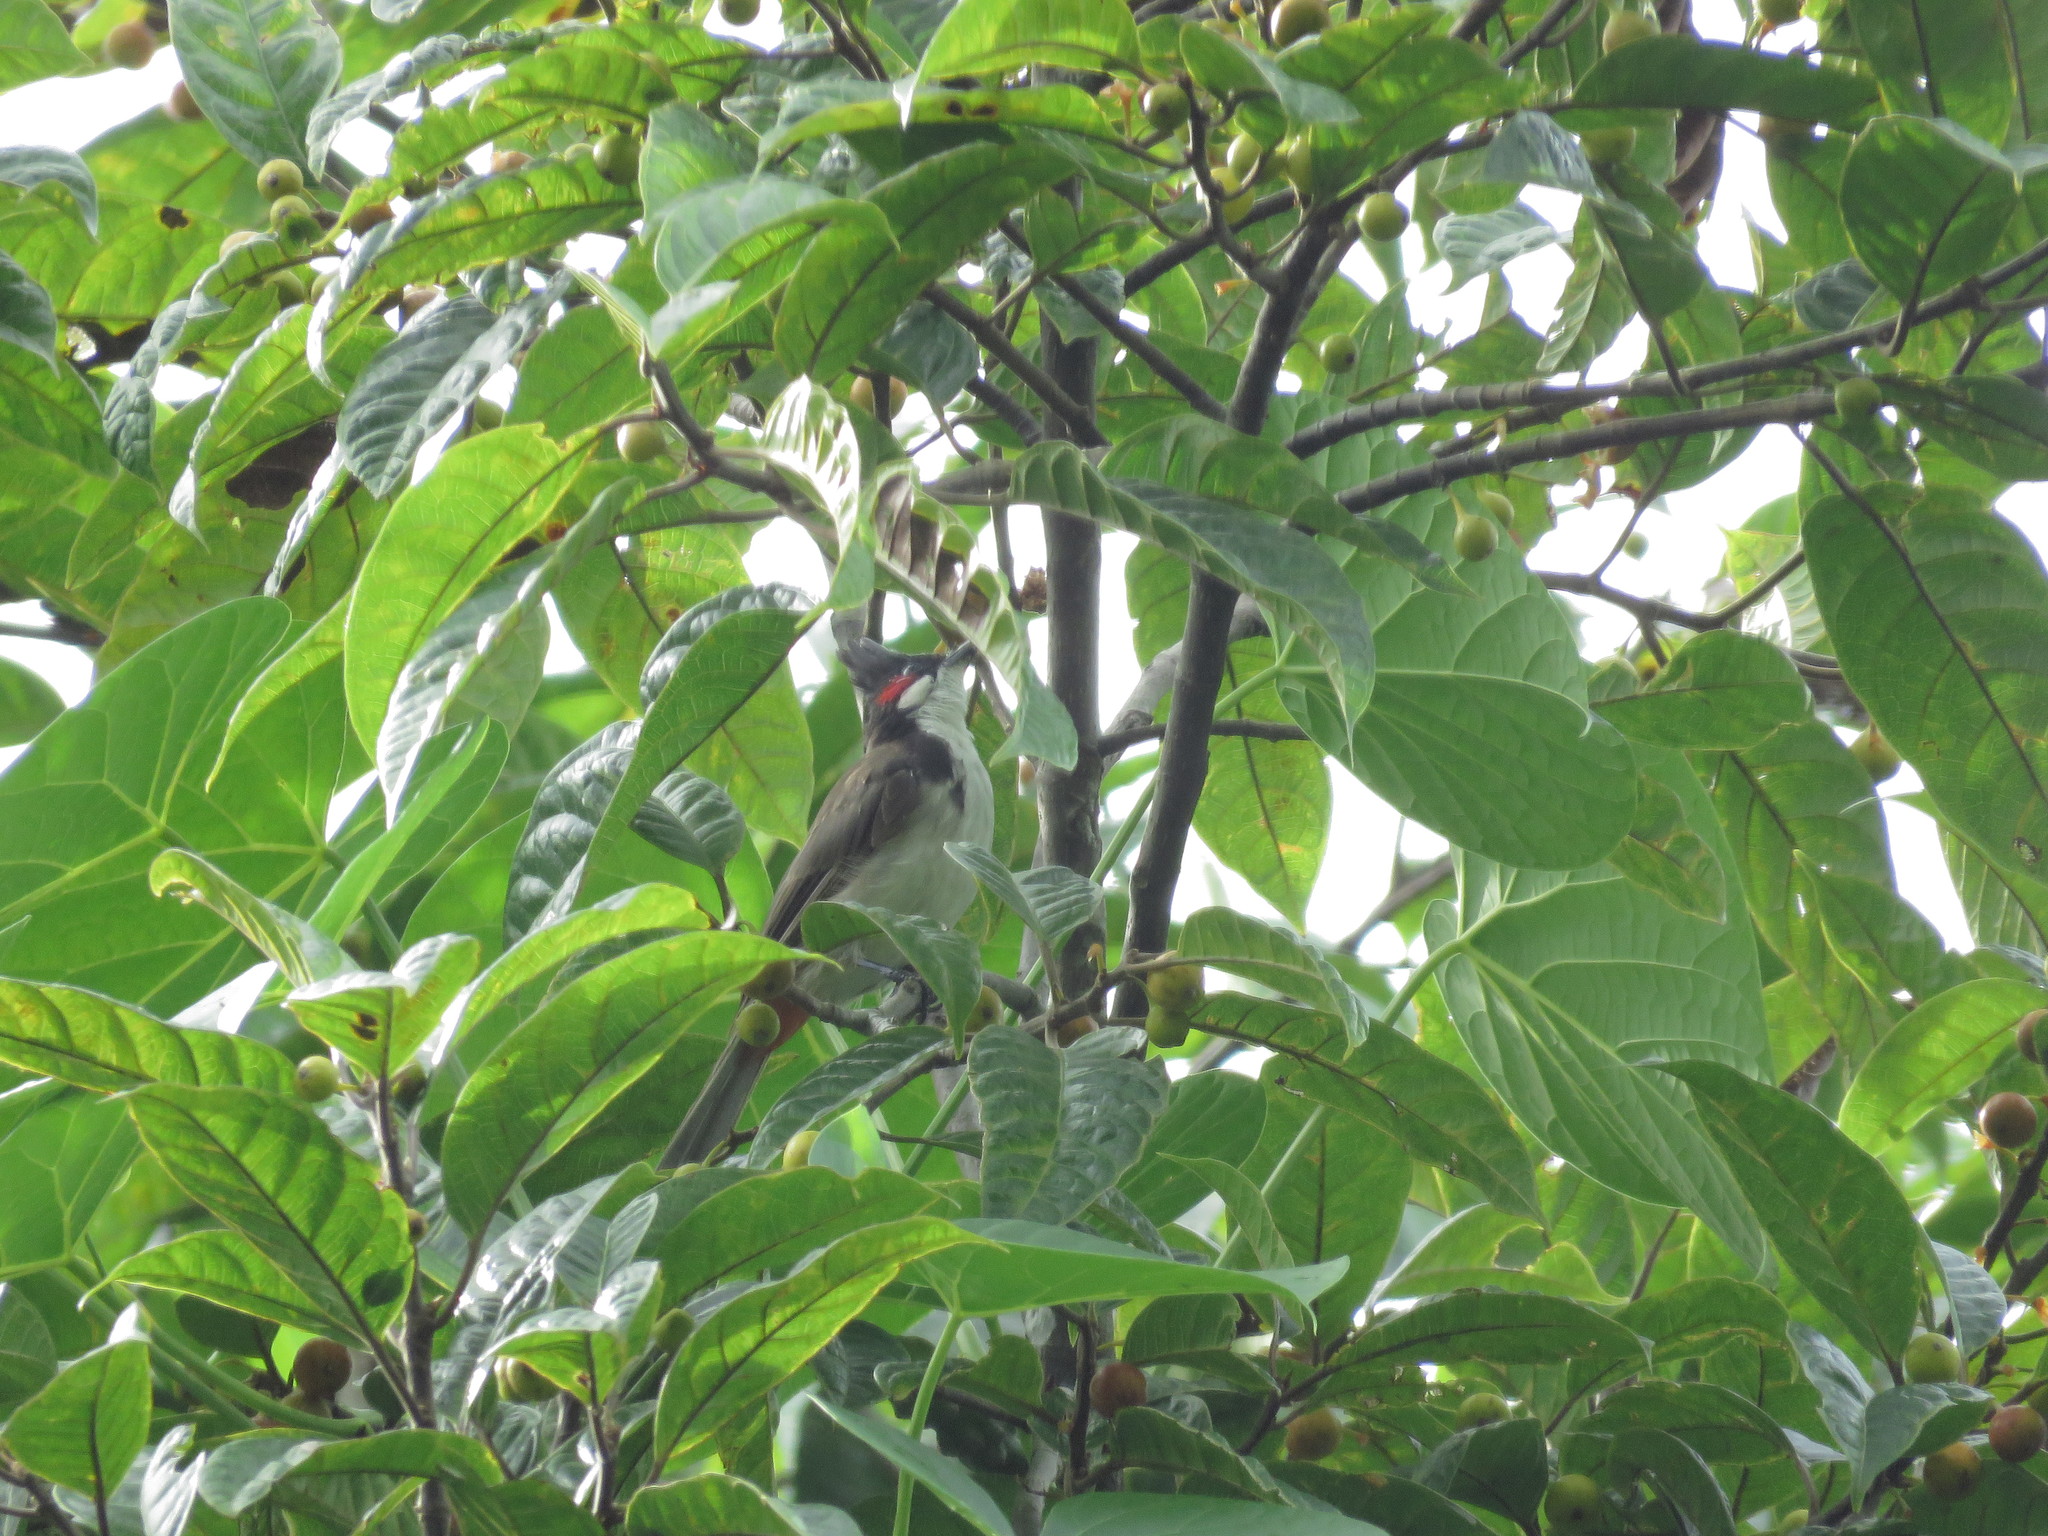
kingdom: Animalia
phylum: Chordata
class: Aves
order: Passeriformes
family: Pycnonotidae
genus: Pycnonotus
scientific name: Pycnonotus jocosus
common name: Red-whiskered bulbul
